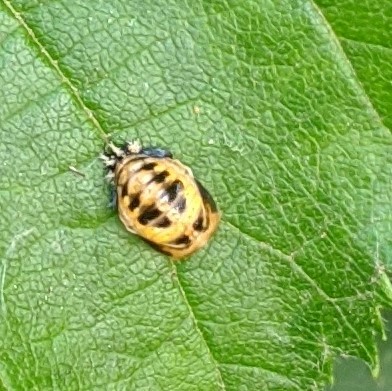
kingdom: Animalia
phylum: Arthropoda
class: Insecta
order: Coleoptera
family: Coccinellidae
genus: Harmonia
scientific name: Harmonia axyridis
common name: Harlequin ladybird
